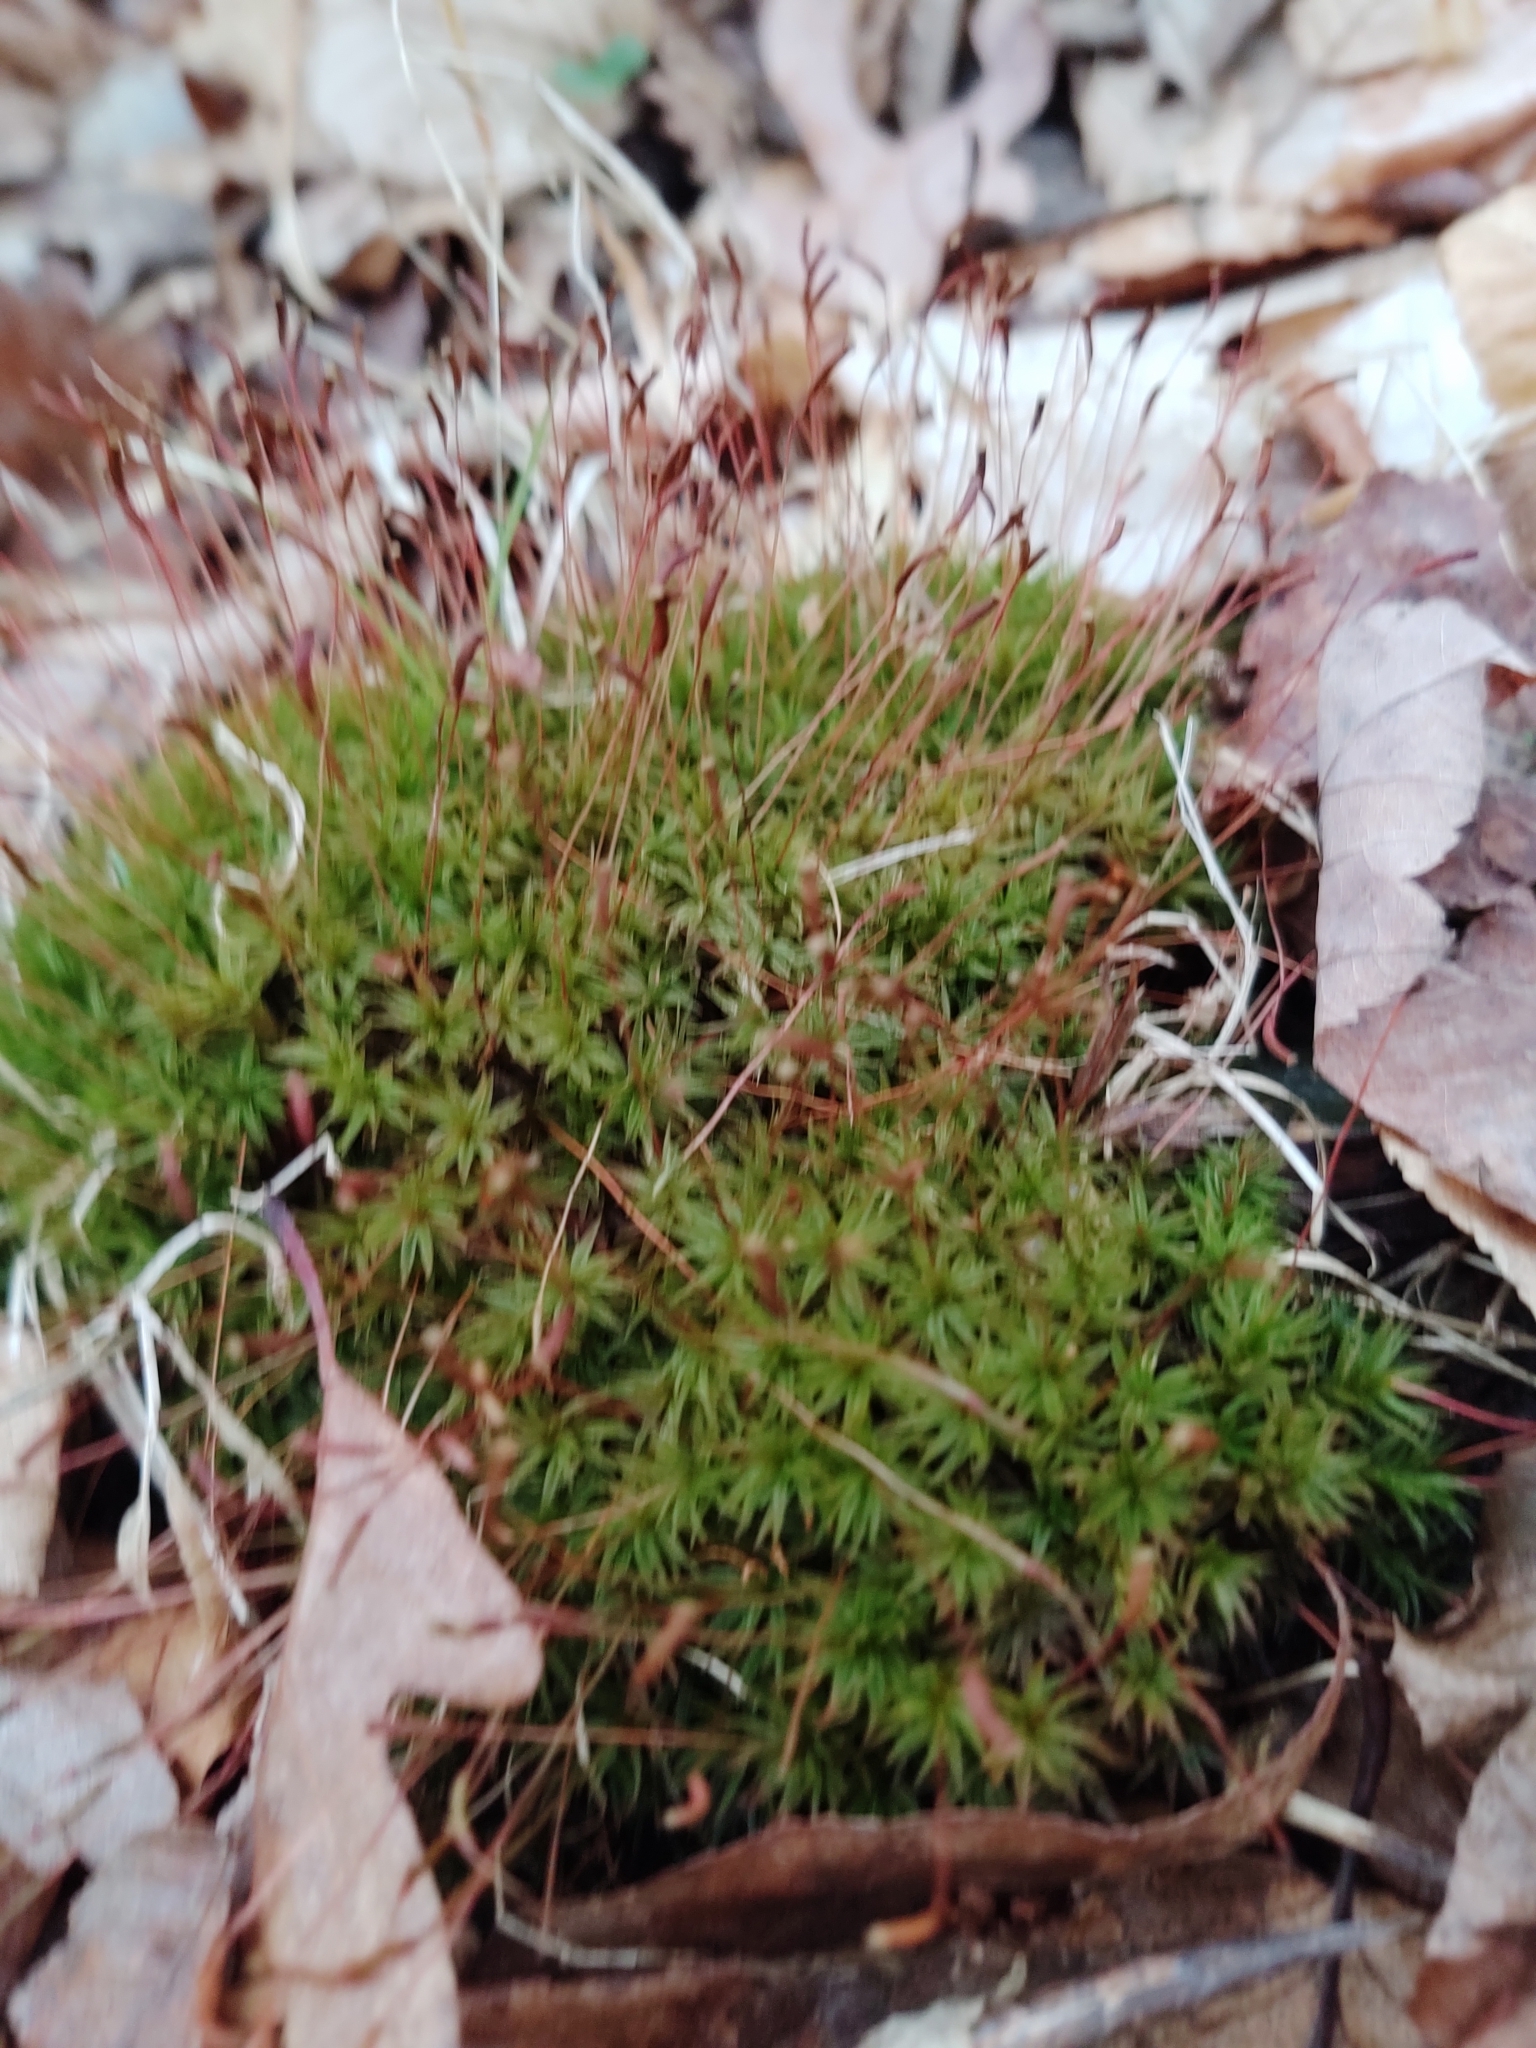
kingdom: Plantae
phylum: Bryophyta
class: Polytrichopsida
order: Polytrichales
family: Polytrichaceae
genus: Atrichum
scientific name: Atrichum angustatum
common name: Lesser smoothcap
